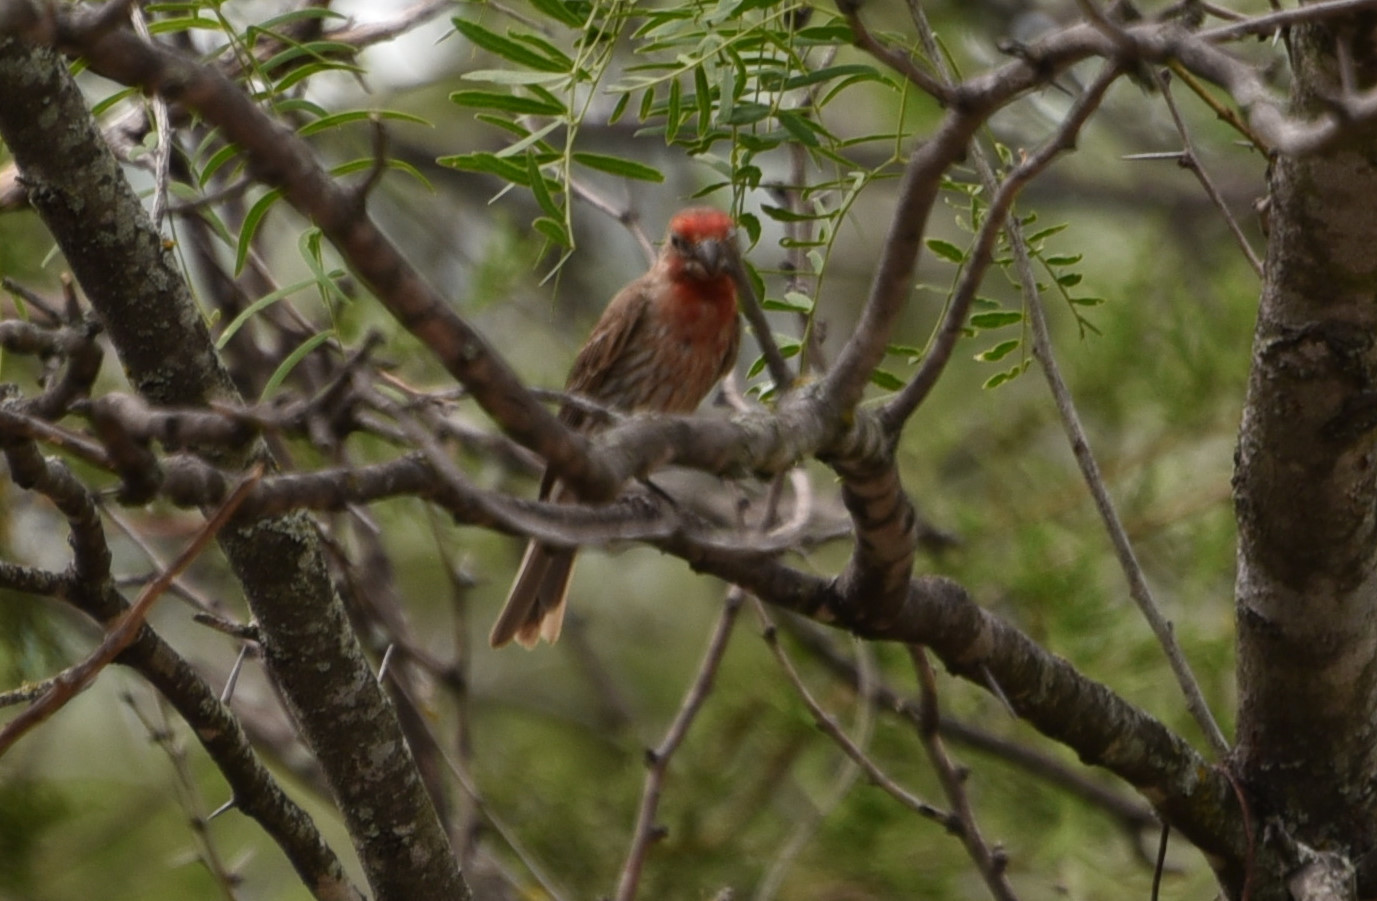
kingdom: Animalia
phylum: Chordata
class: Aves
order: Passeriformes
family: Fringillidae
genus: Haemorhous
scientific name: Haemorhous mexicanus
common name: House finch
